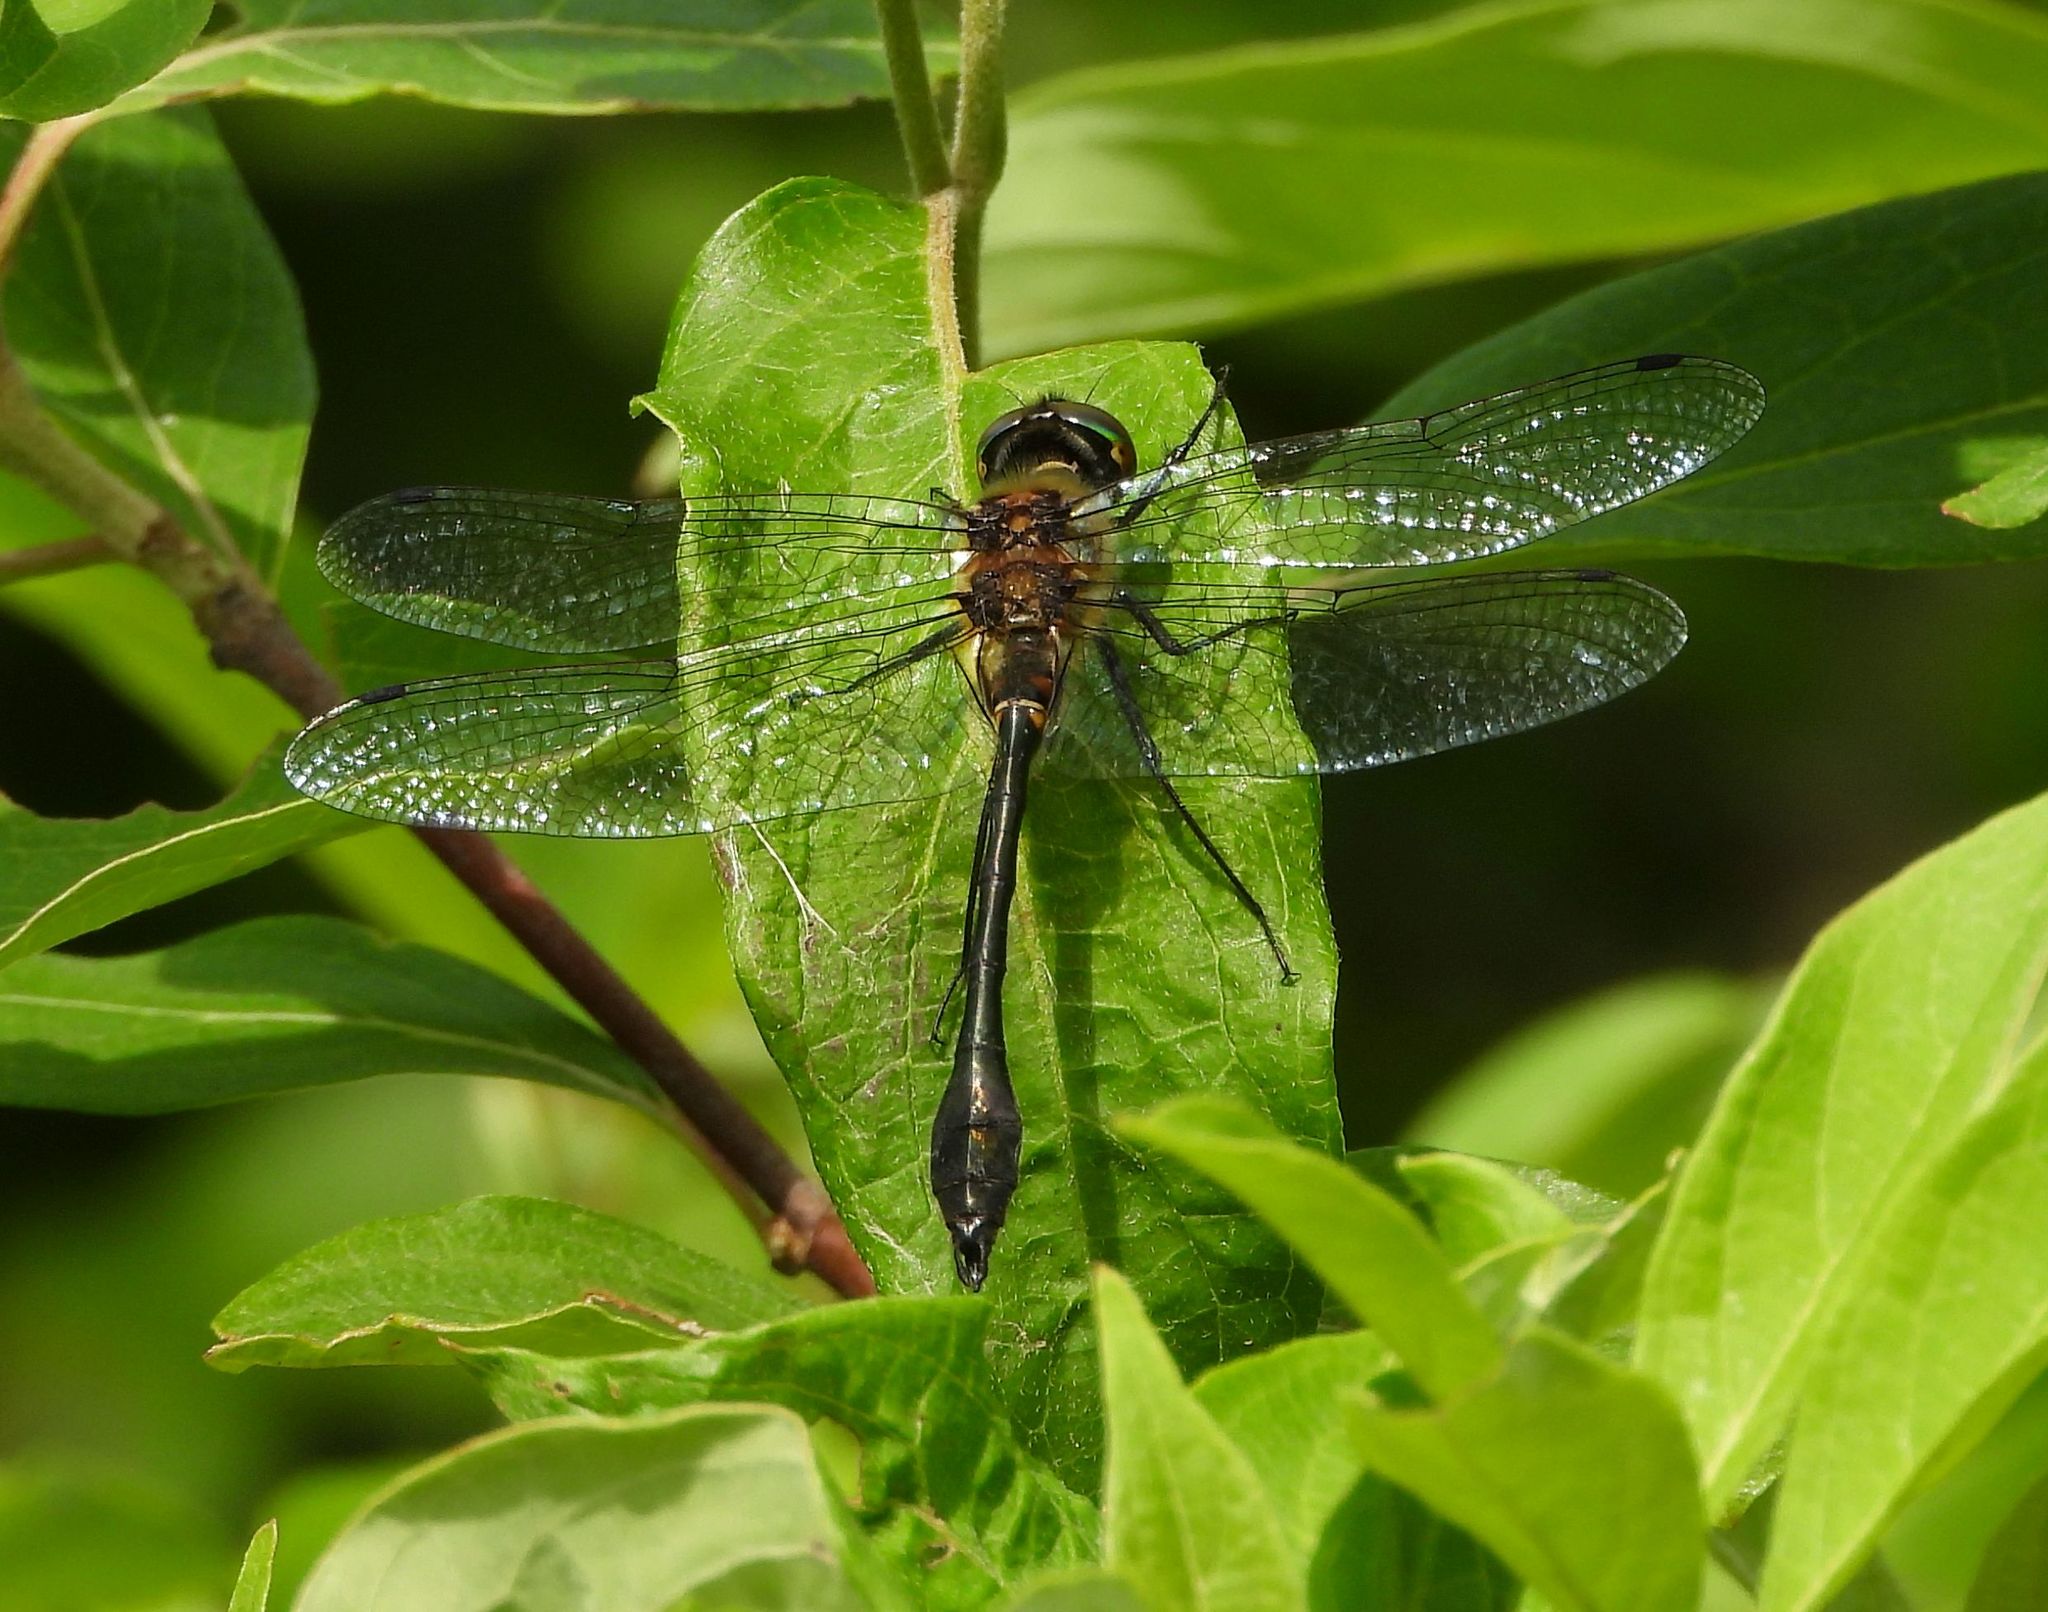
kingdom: Animalia
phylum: Arthropoda
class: Insecta
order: Odonata
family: Corduliidae
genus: Dorocordulia
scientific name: Dorocordulia libera
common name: Racket-tailed emerald
